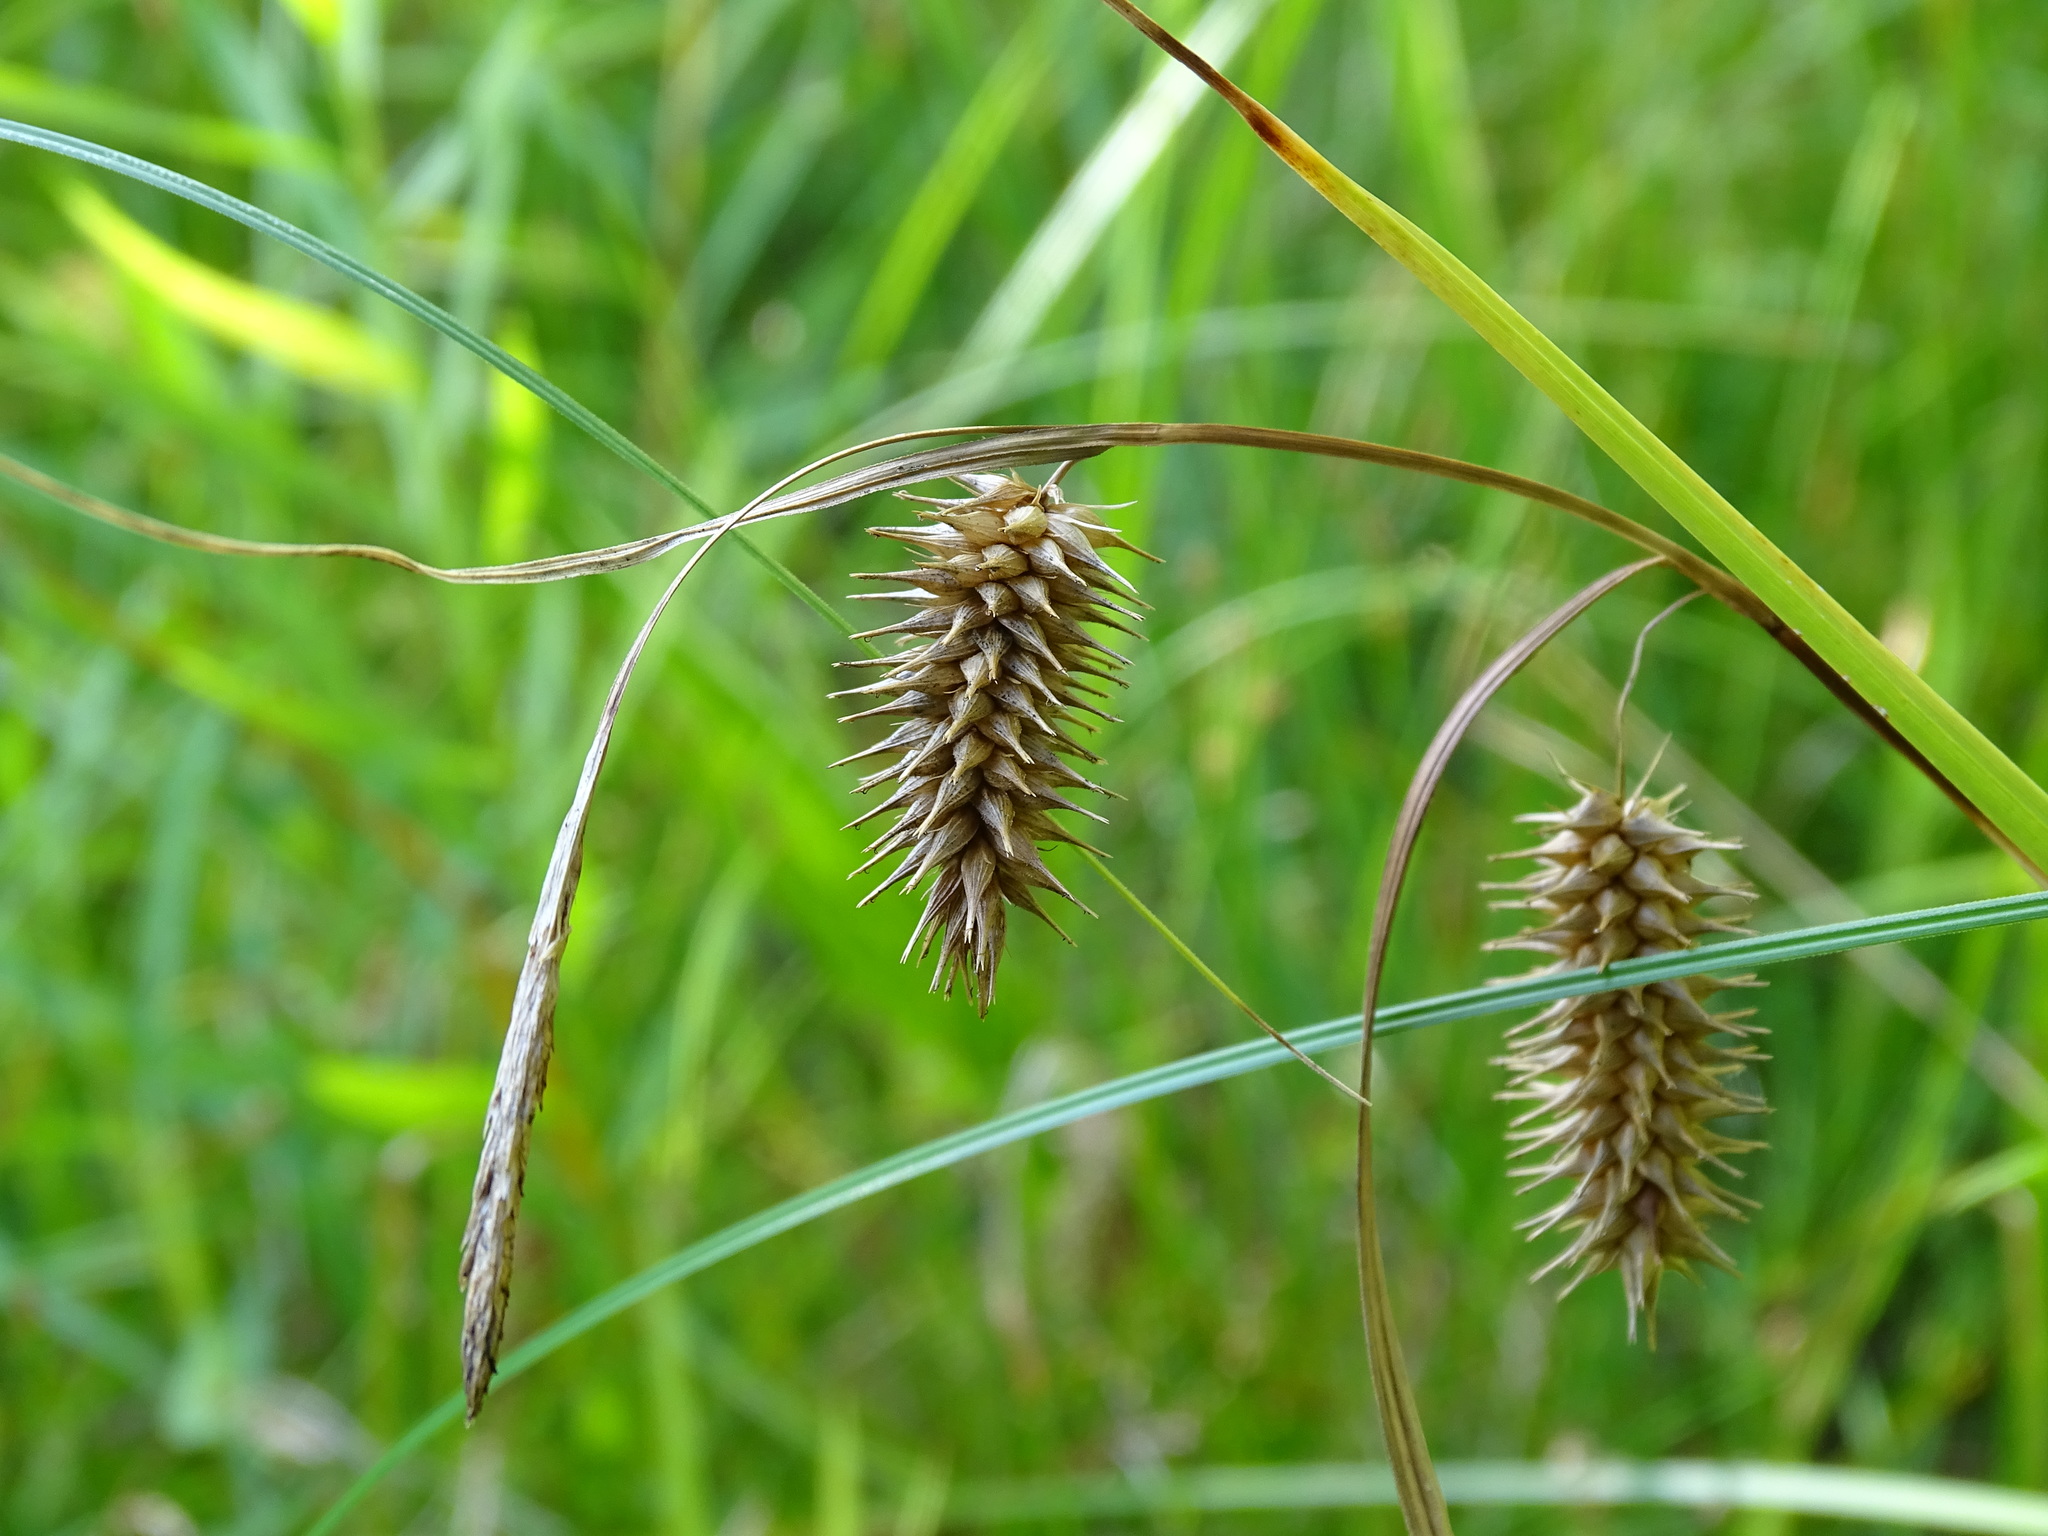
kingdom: Plantae
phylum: Tracheophyta
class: Liliopsida
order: Poales
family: Cyperaceae
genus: Carex
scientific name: Carex hystericina
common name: Bottlebrush sedge
